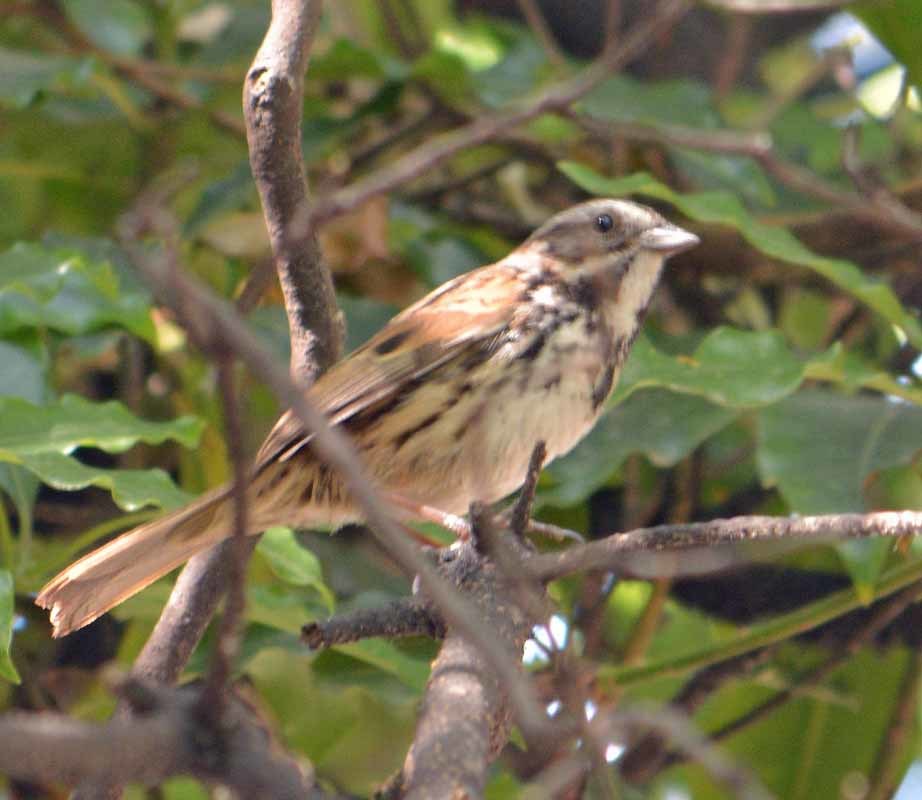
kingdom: Animalia
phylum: Chordata
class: Aves
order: Passeriformes
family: Passerellidae
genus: Melospiza
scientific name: Melospiza melodia
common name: Song sparrow
